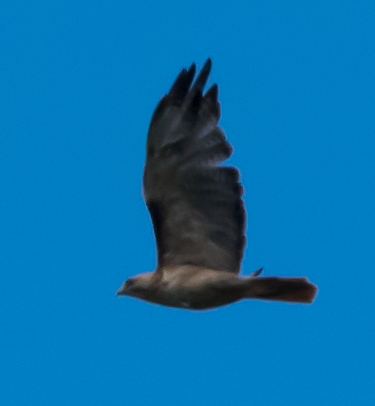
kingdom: Animalia
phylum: Chordata
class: Aves
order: Accipitriformes
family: Accipitridae
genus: Buteo
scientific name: Buteo jamaicensis
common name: Red-tailed hawk
